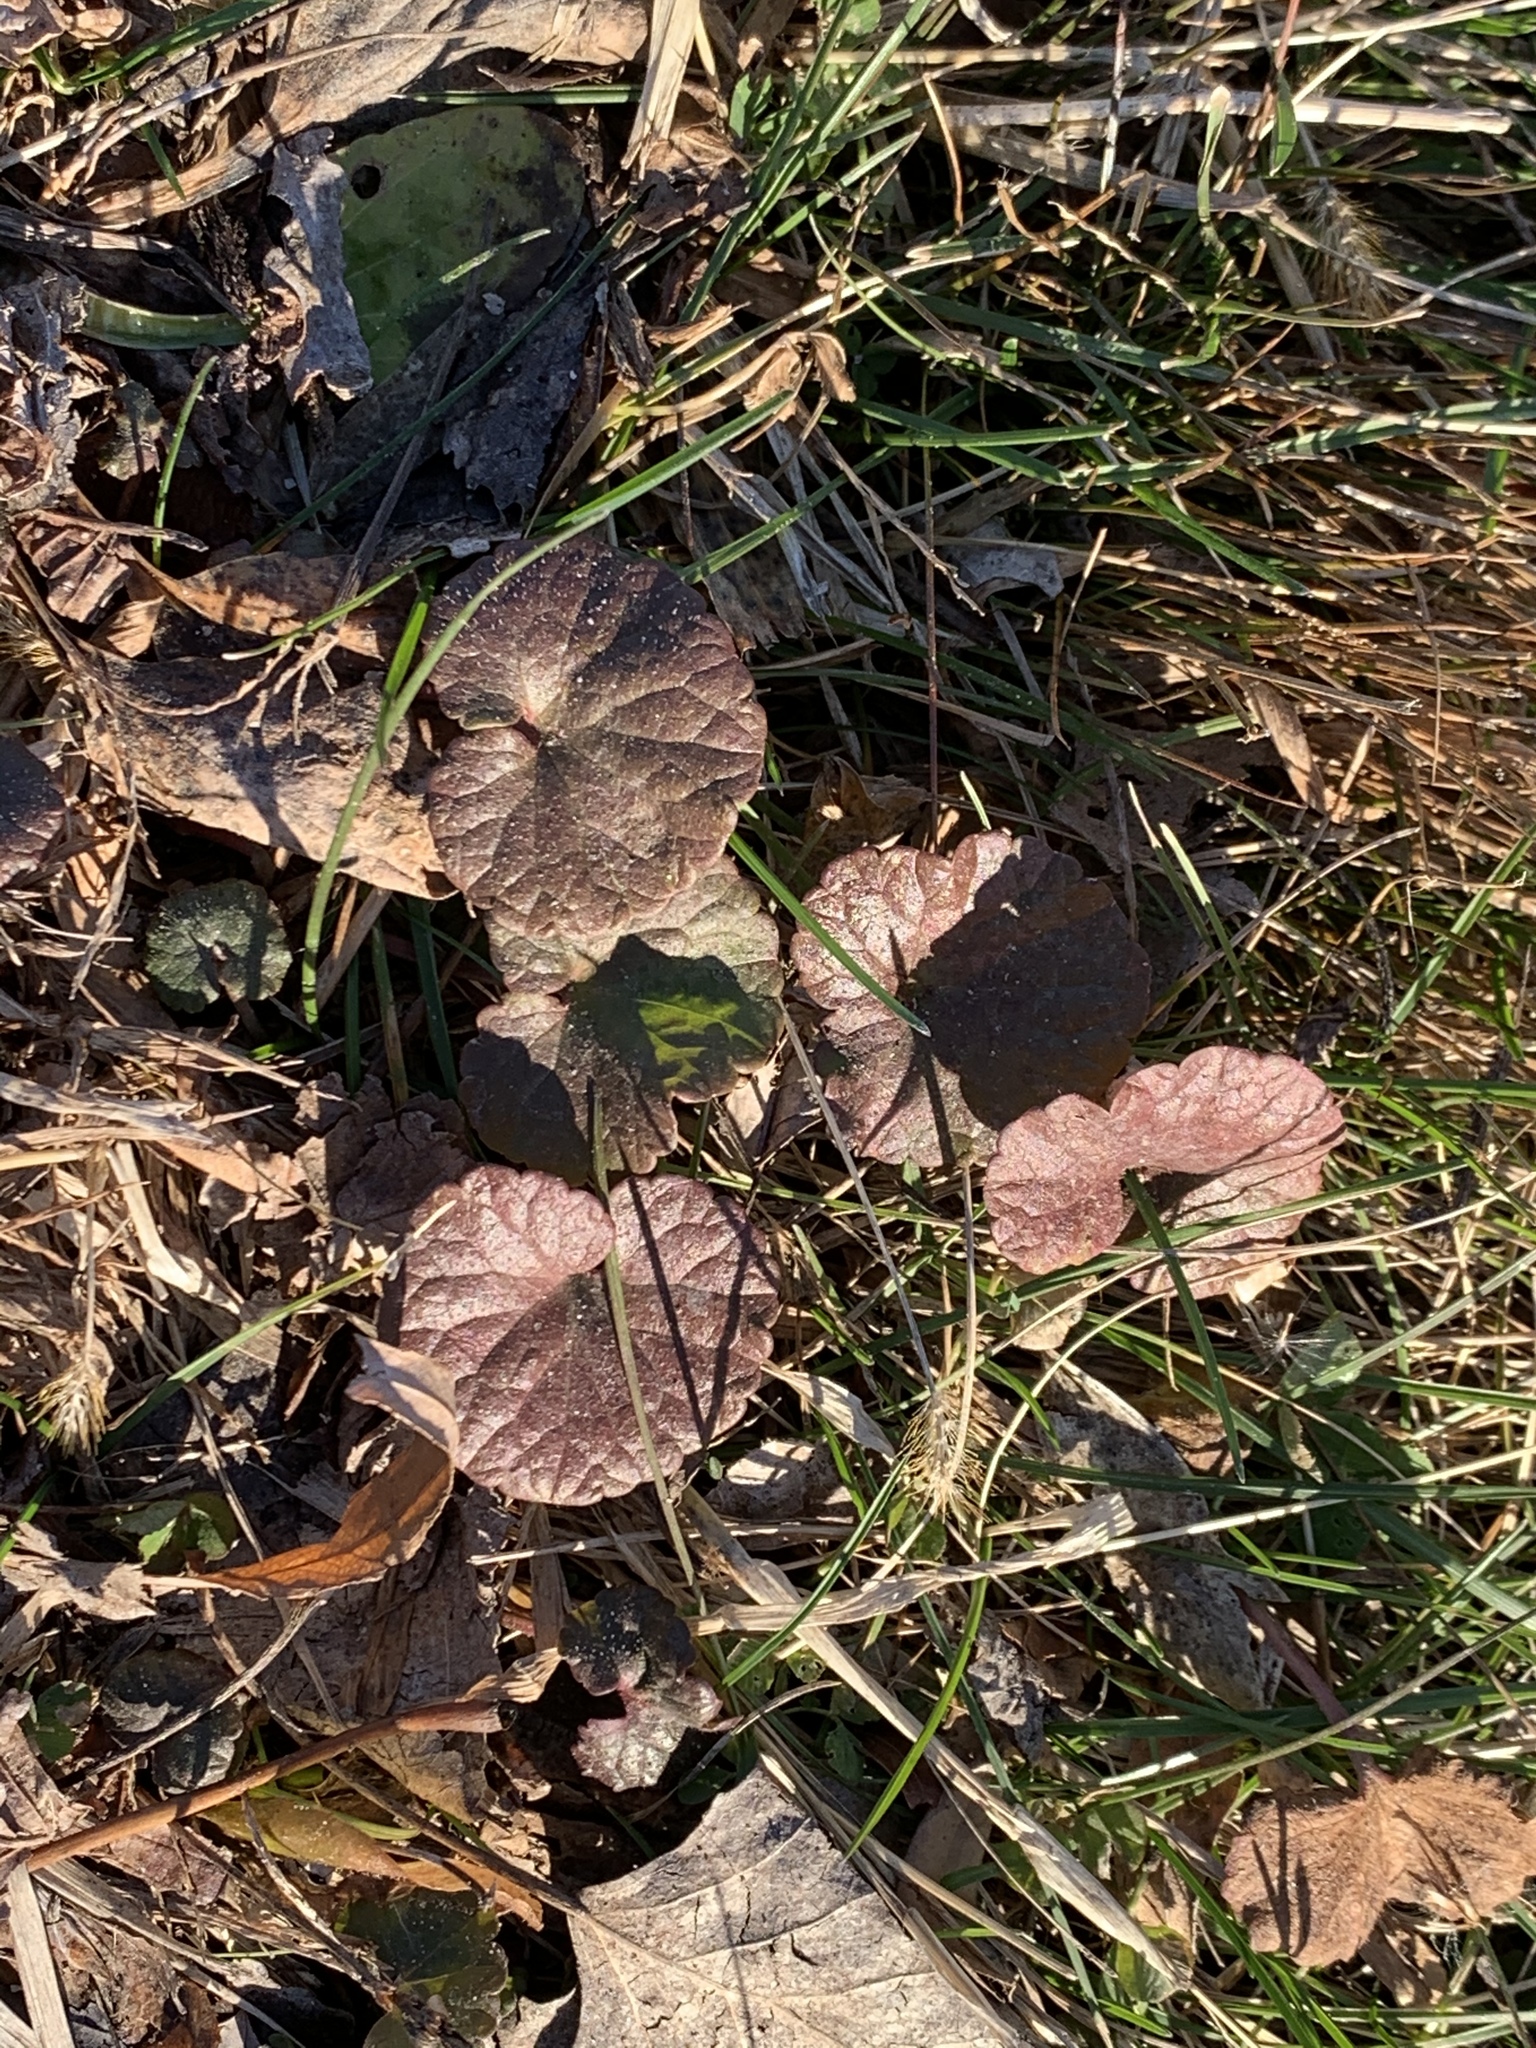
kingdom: Plantae
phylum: Tracheophyta
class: Magnoliopsida
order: Lamiales
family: Lamiaceae
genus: Glechoma
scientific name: Glechoma hederacea
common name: Ground ivy
